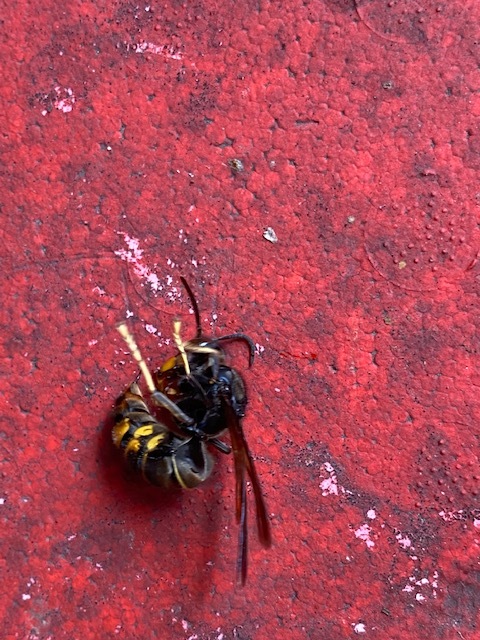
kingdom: Animalia
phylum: Arthropoda
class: Insecta
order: Hymenoptera
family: Vespidae
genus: Vespa
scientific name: Vespa velutina
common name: Asian hornet
